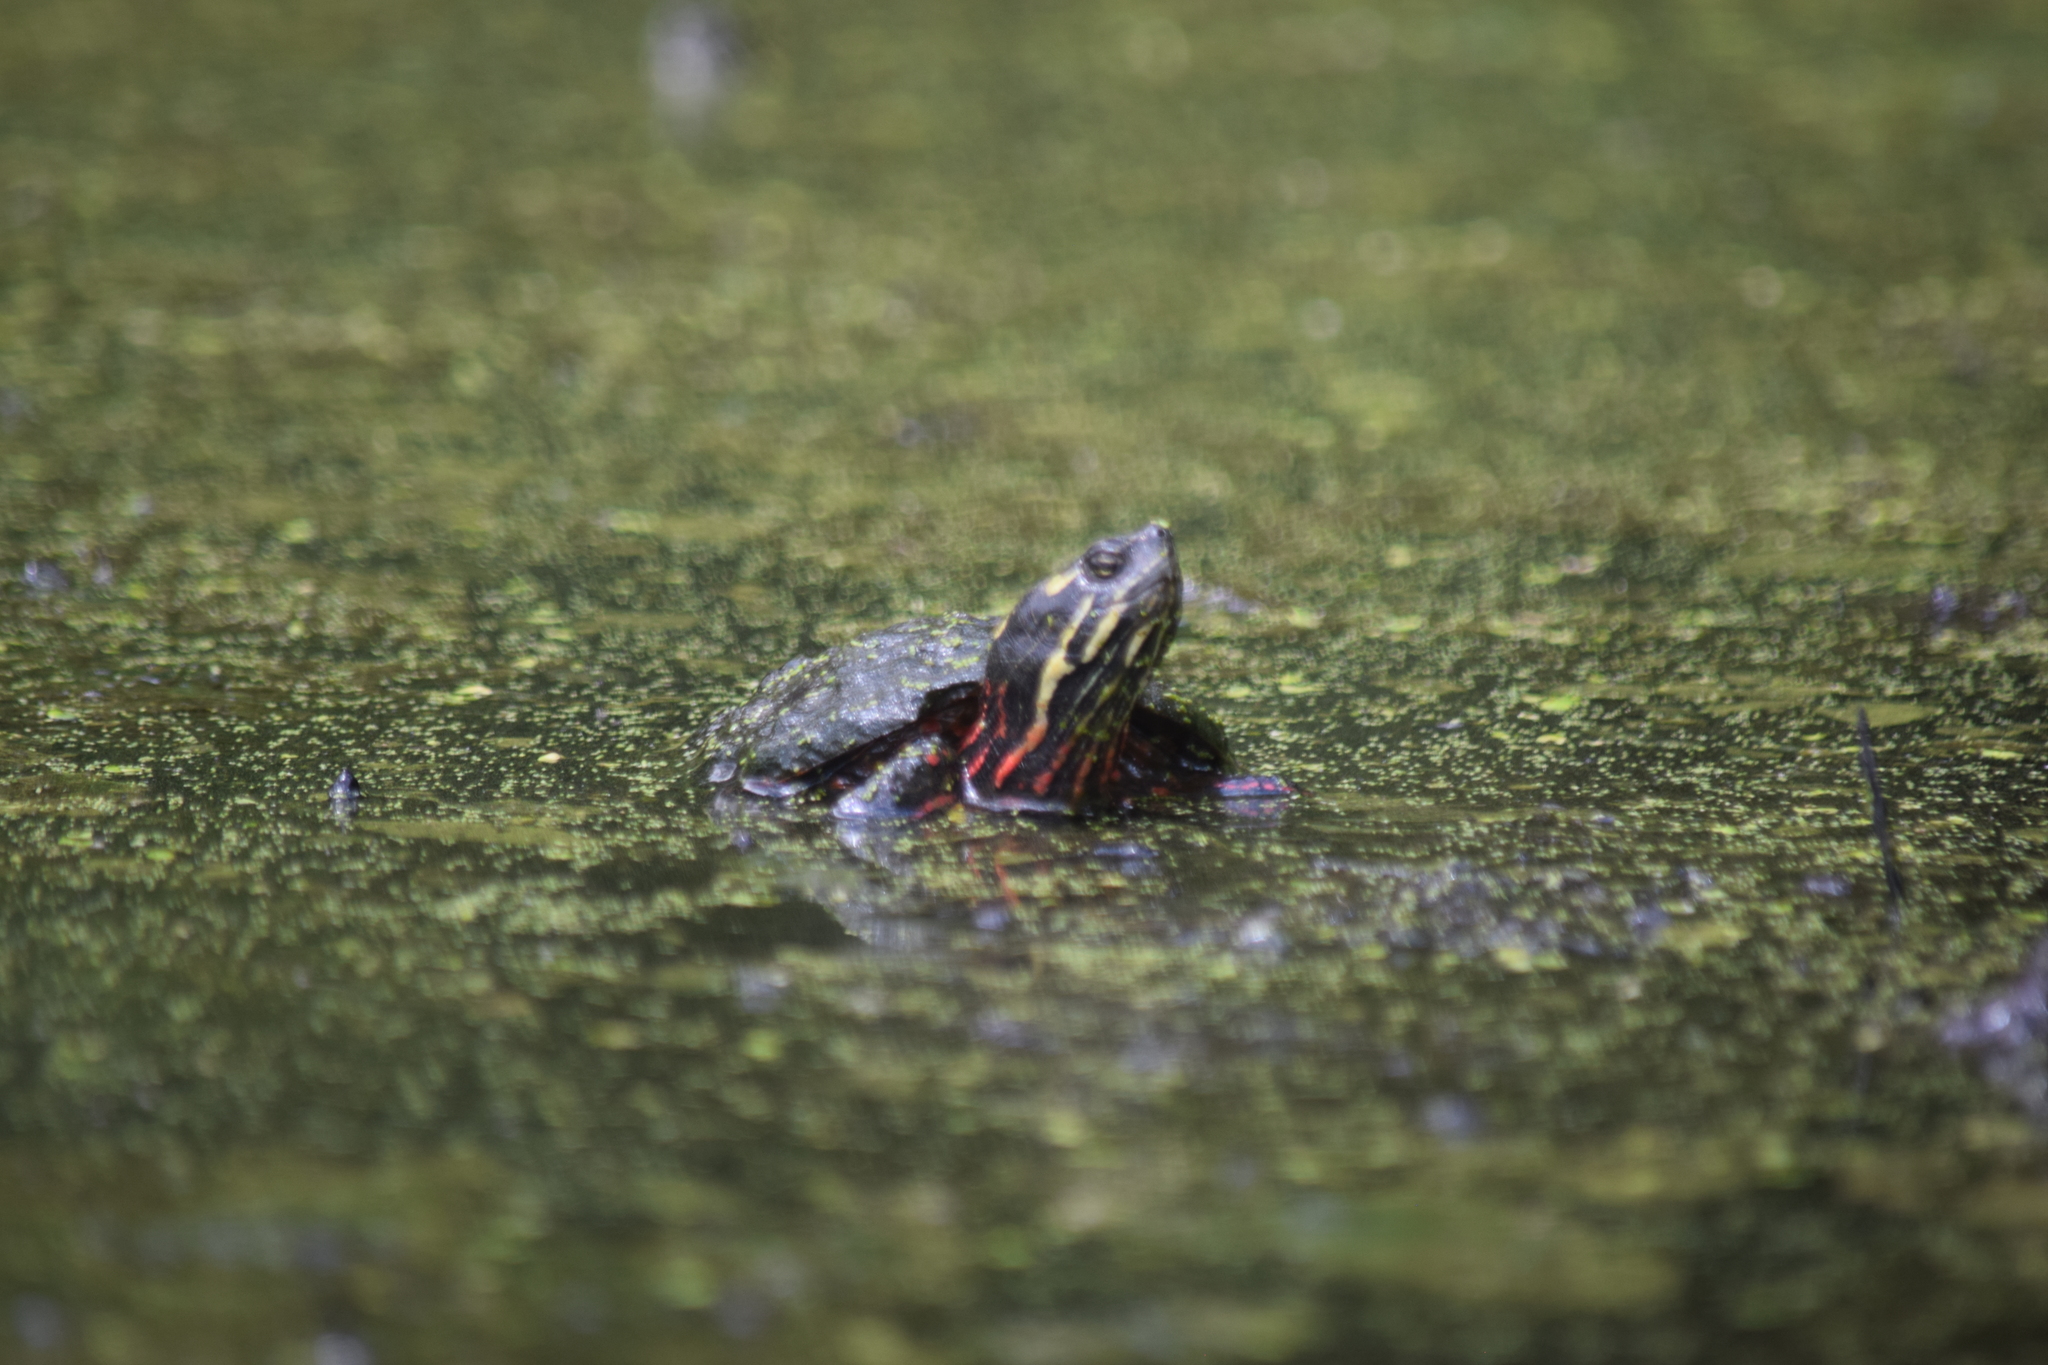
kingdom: Animalia
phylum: Chordata
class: Testudines
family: Emydidae
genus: Chrysemys
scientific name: Chrysemys picta
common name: Painted turtle
